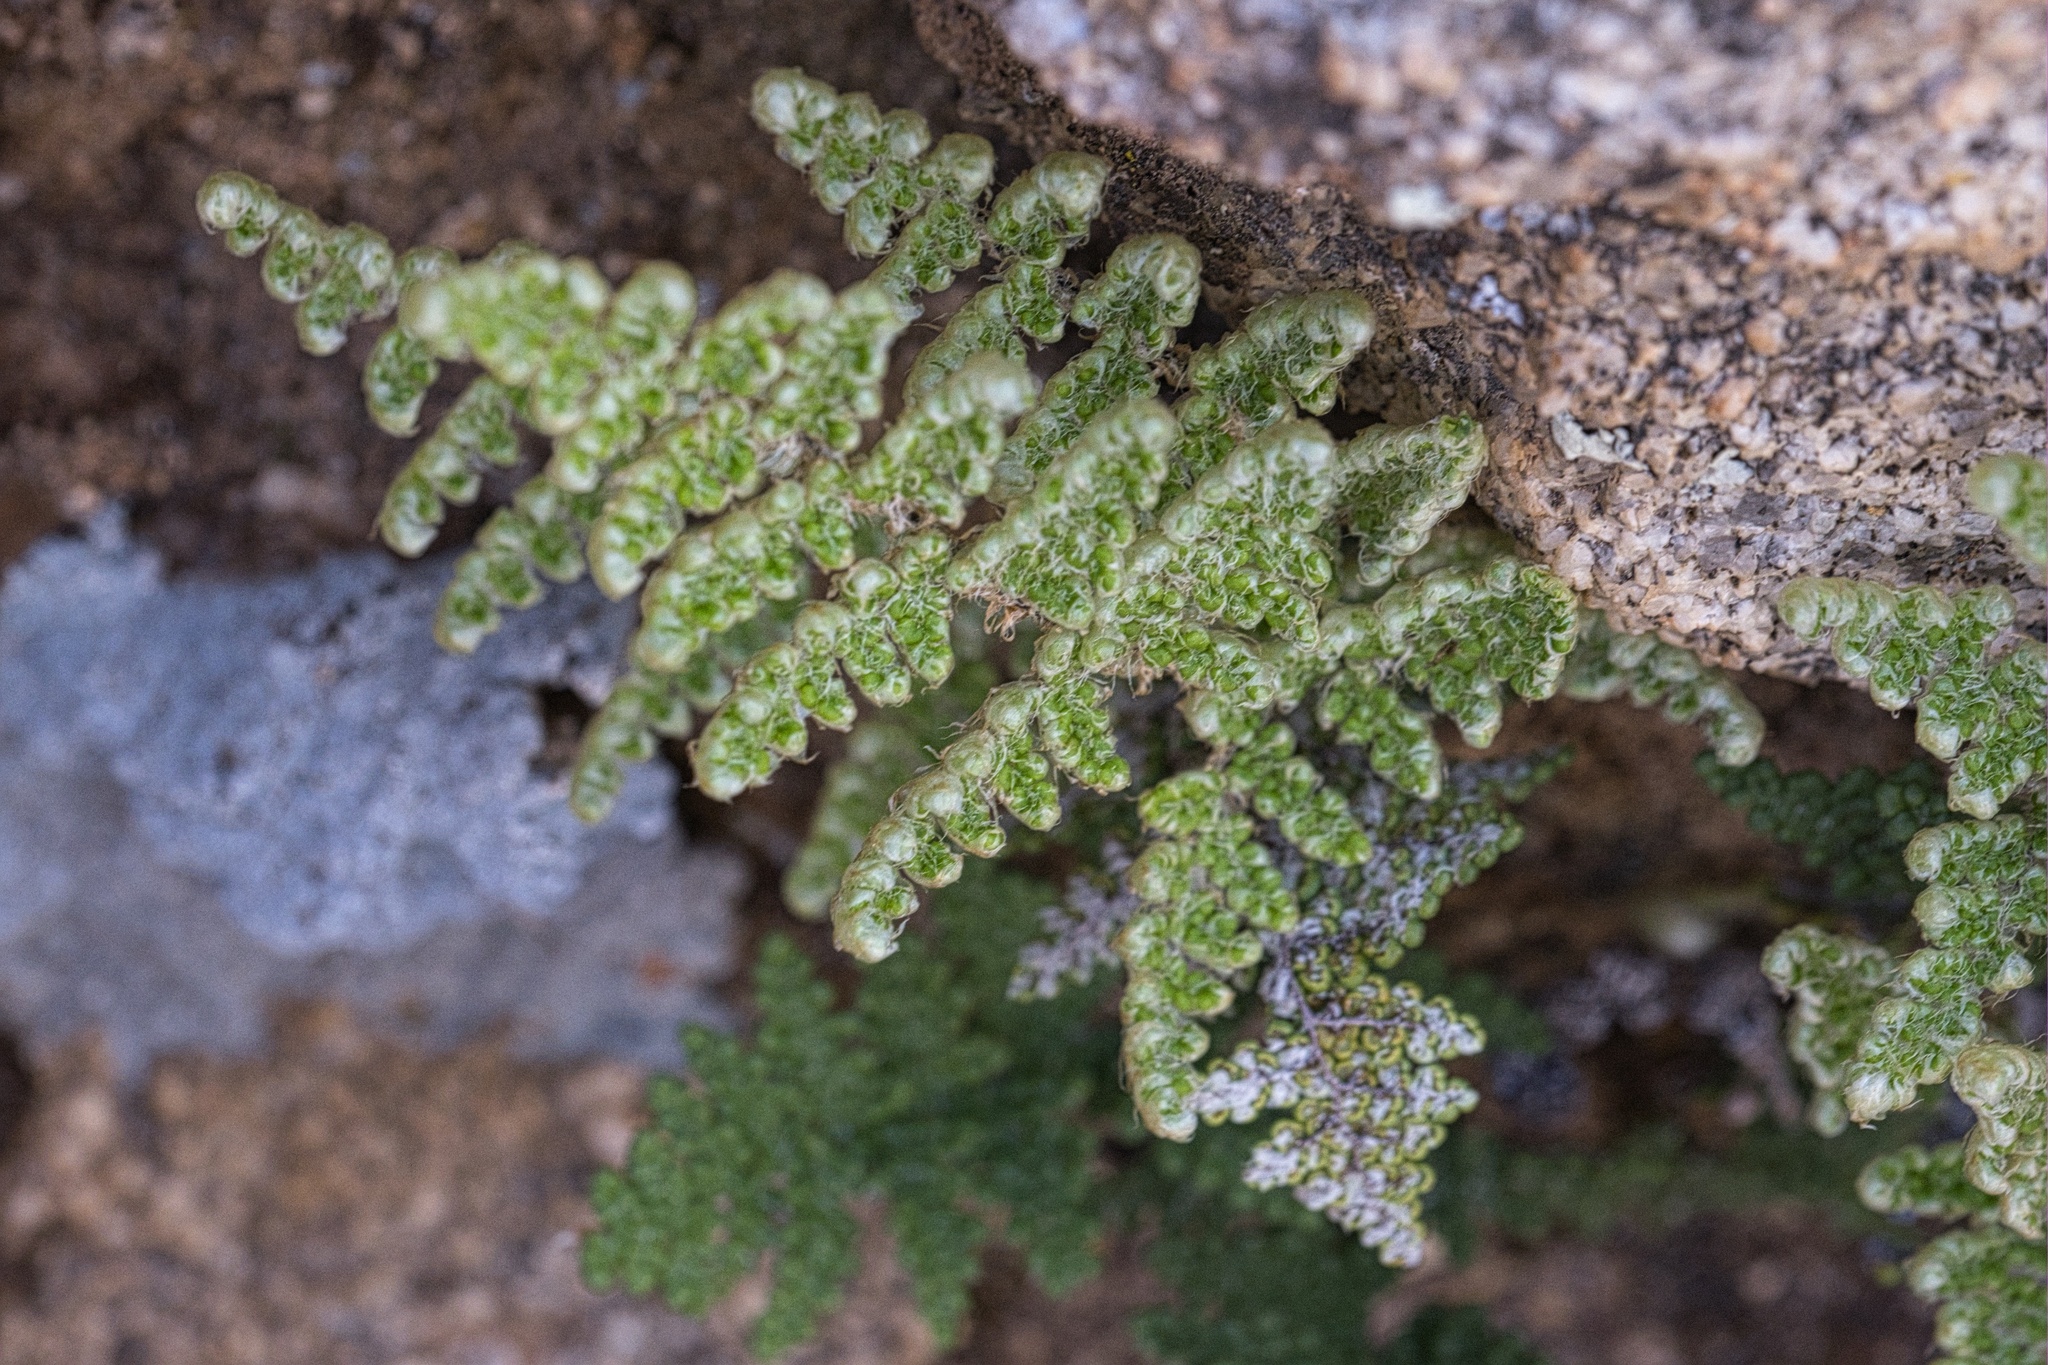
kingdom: Plantae
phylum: Tracheophyta
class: Polypodiopsida
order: Polypodiales
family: Pteridaceae
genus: Myriopteris
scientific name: Myriopteris covillei
